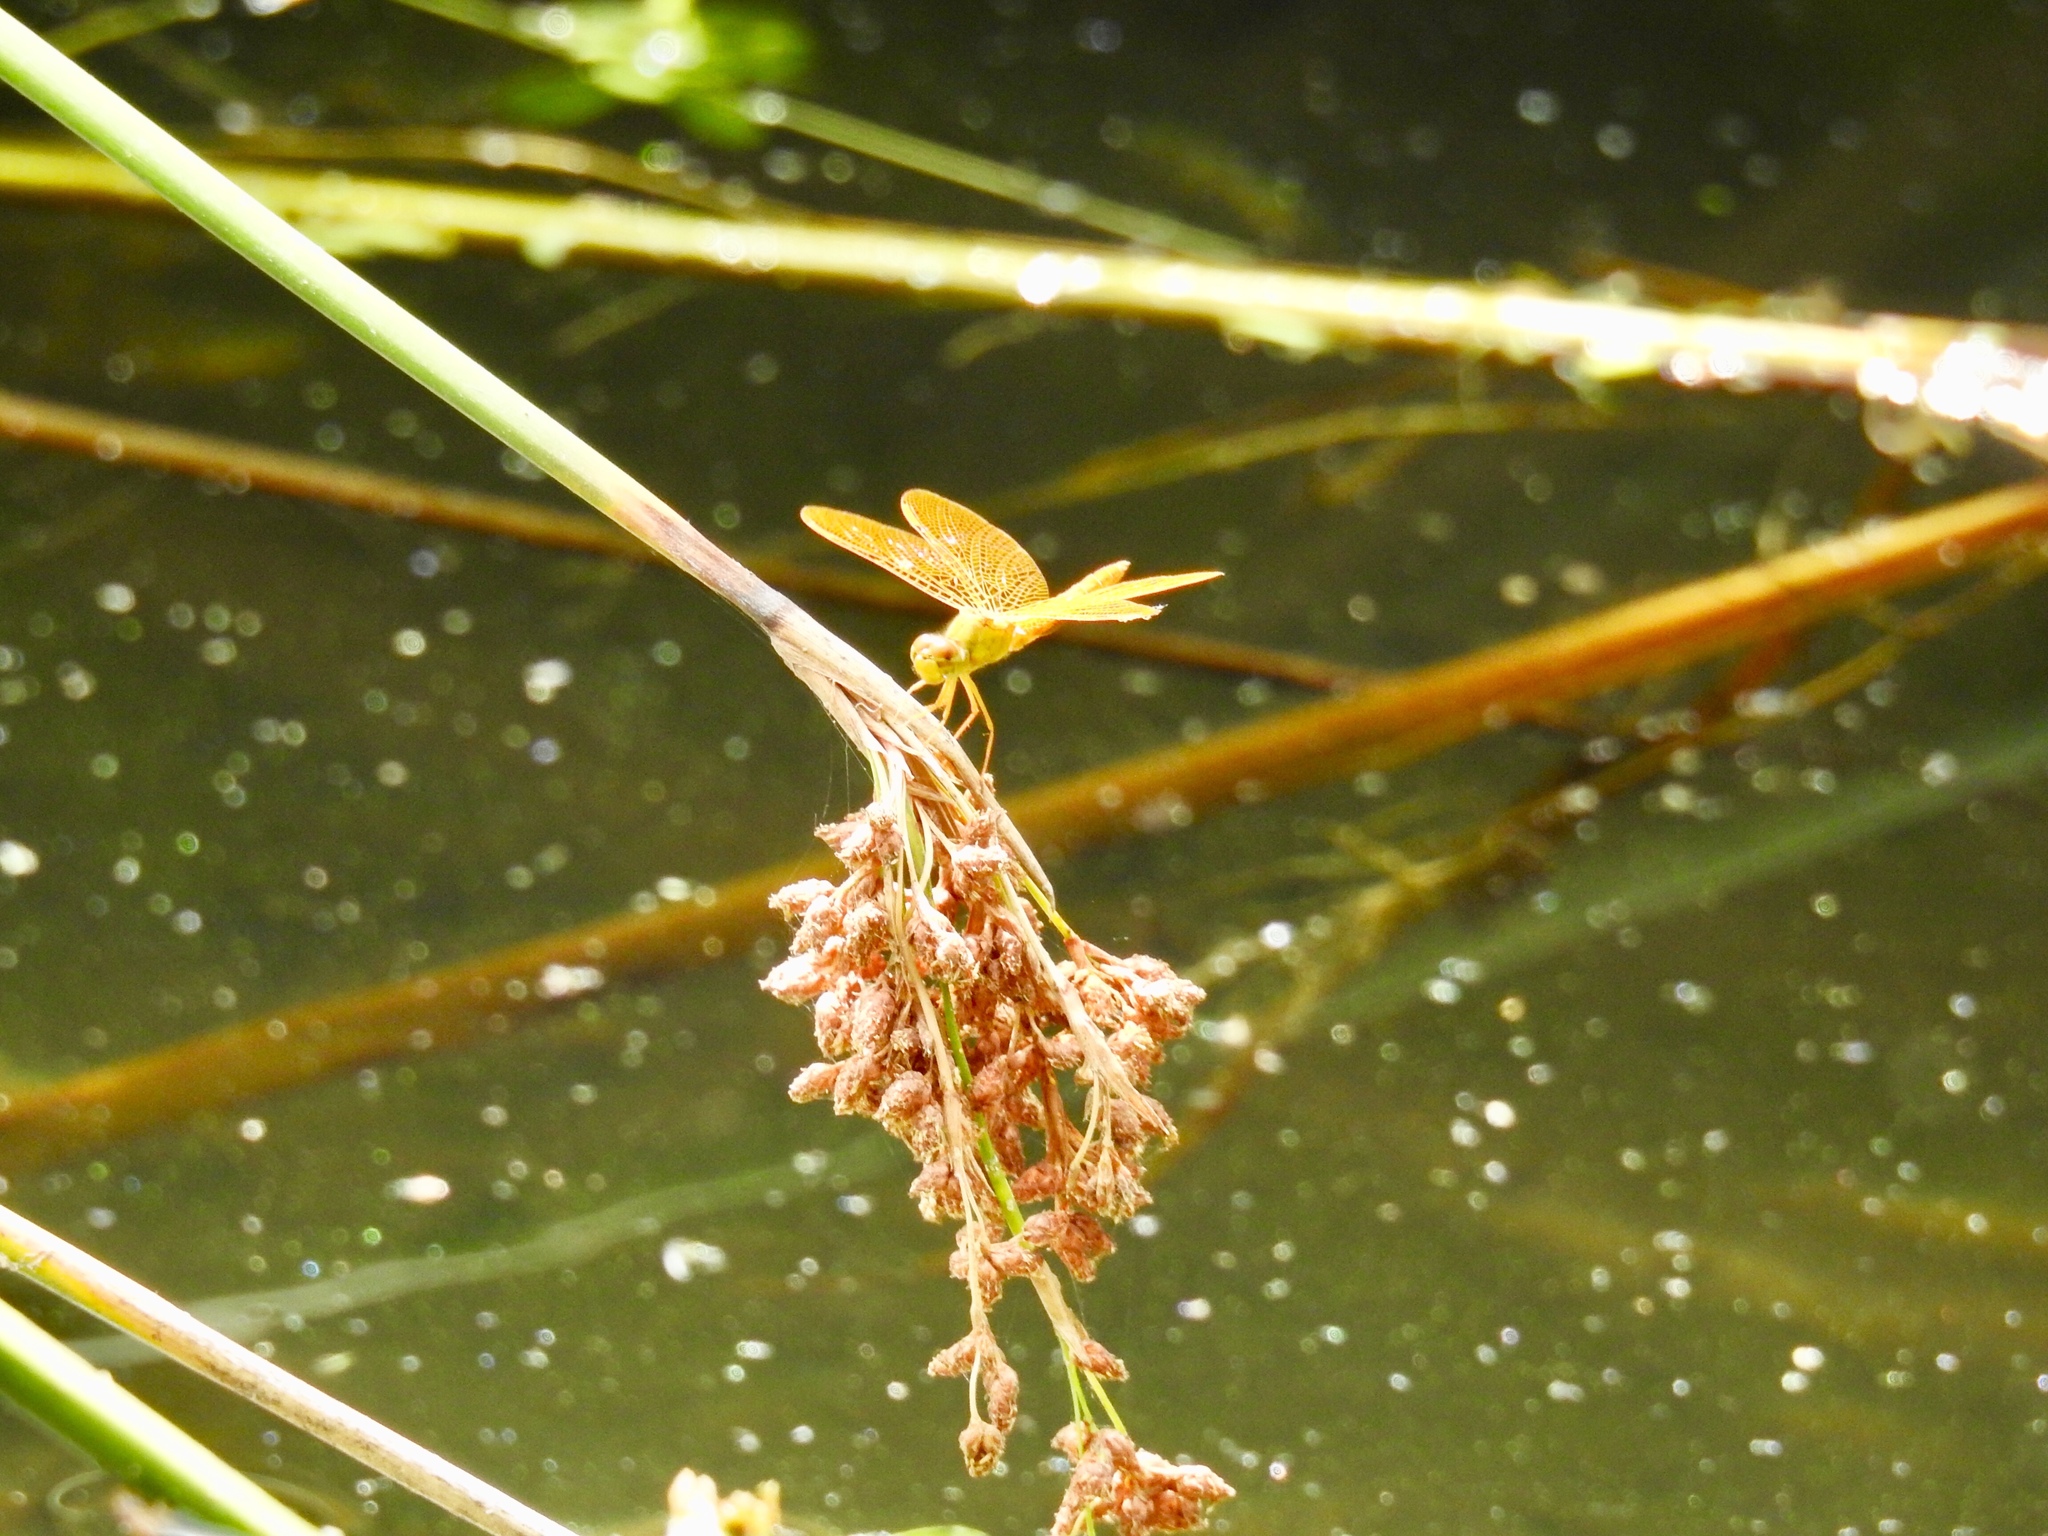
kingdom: Animalia
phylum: Arthropoda
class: Insecta
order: Odonata
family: Libellulidae
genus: Perithemis
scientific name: Perithemis intensa
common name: Mexican amberwing
